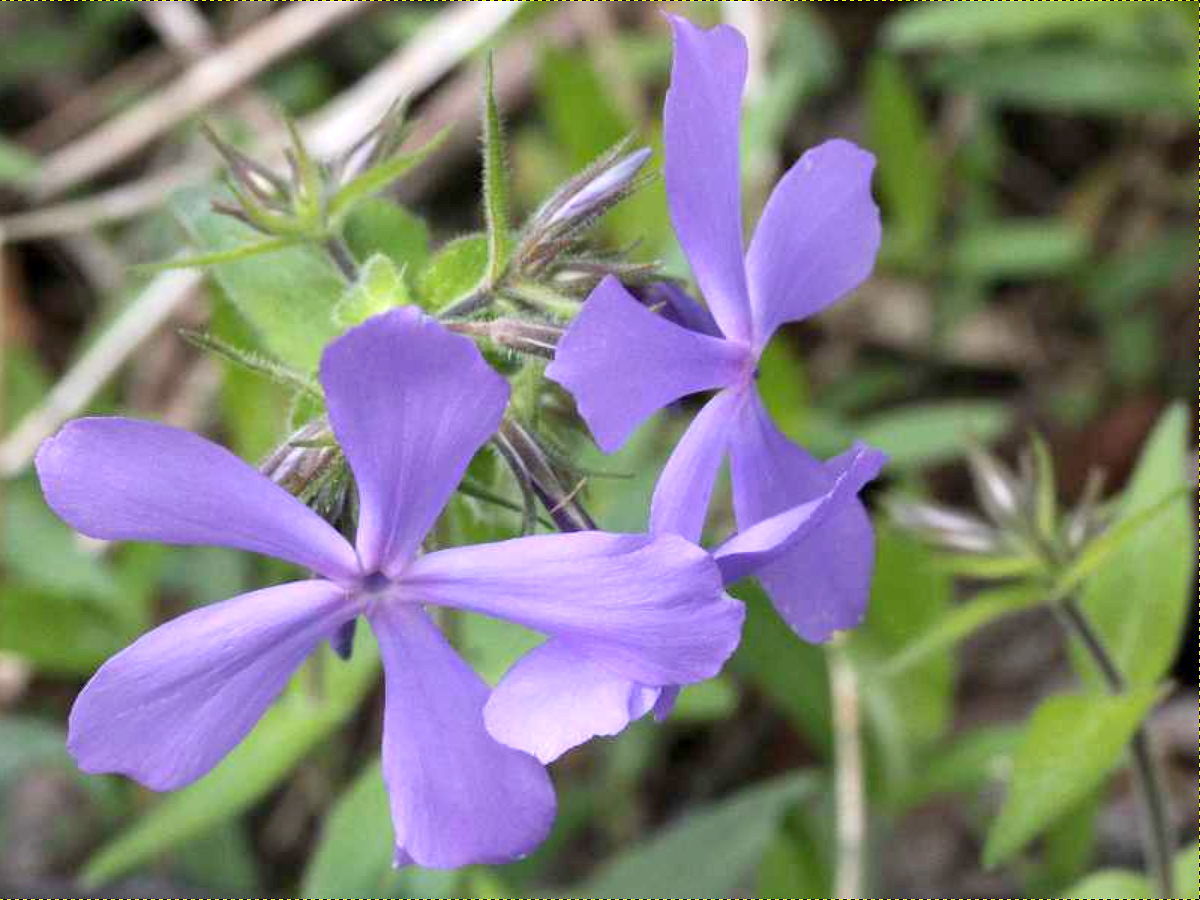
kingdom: Plantae
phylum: Tracheophyta
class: Magnoliopsida
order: Ericales
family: Polemoniaceae
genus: Phlox
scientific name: Phlox divaricata
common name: Blue phlox
